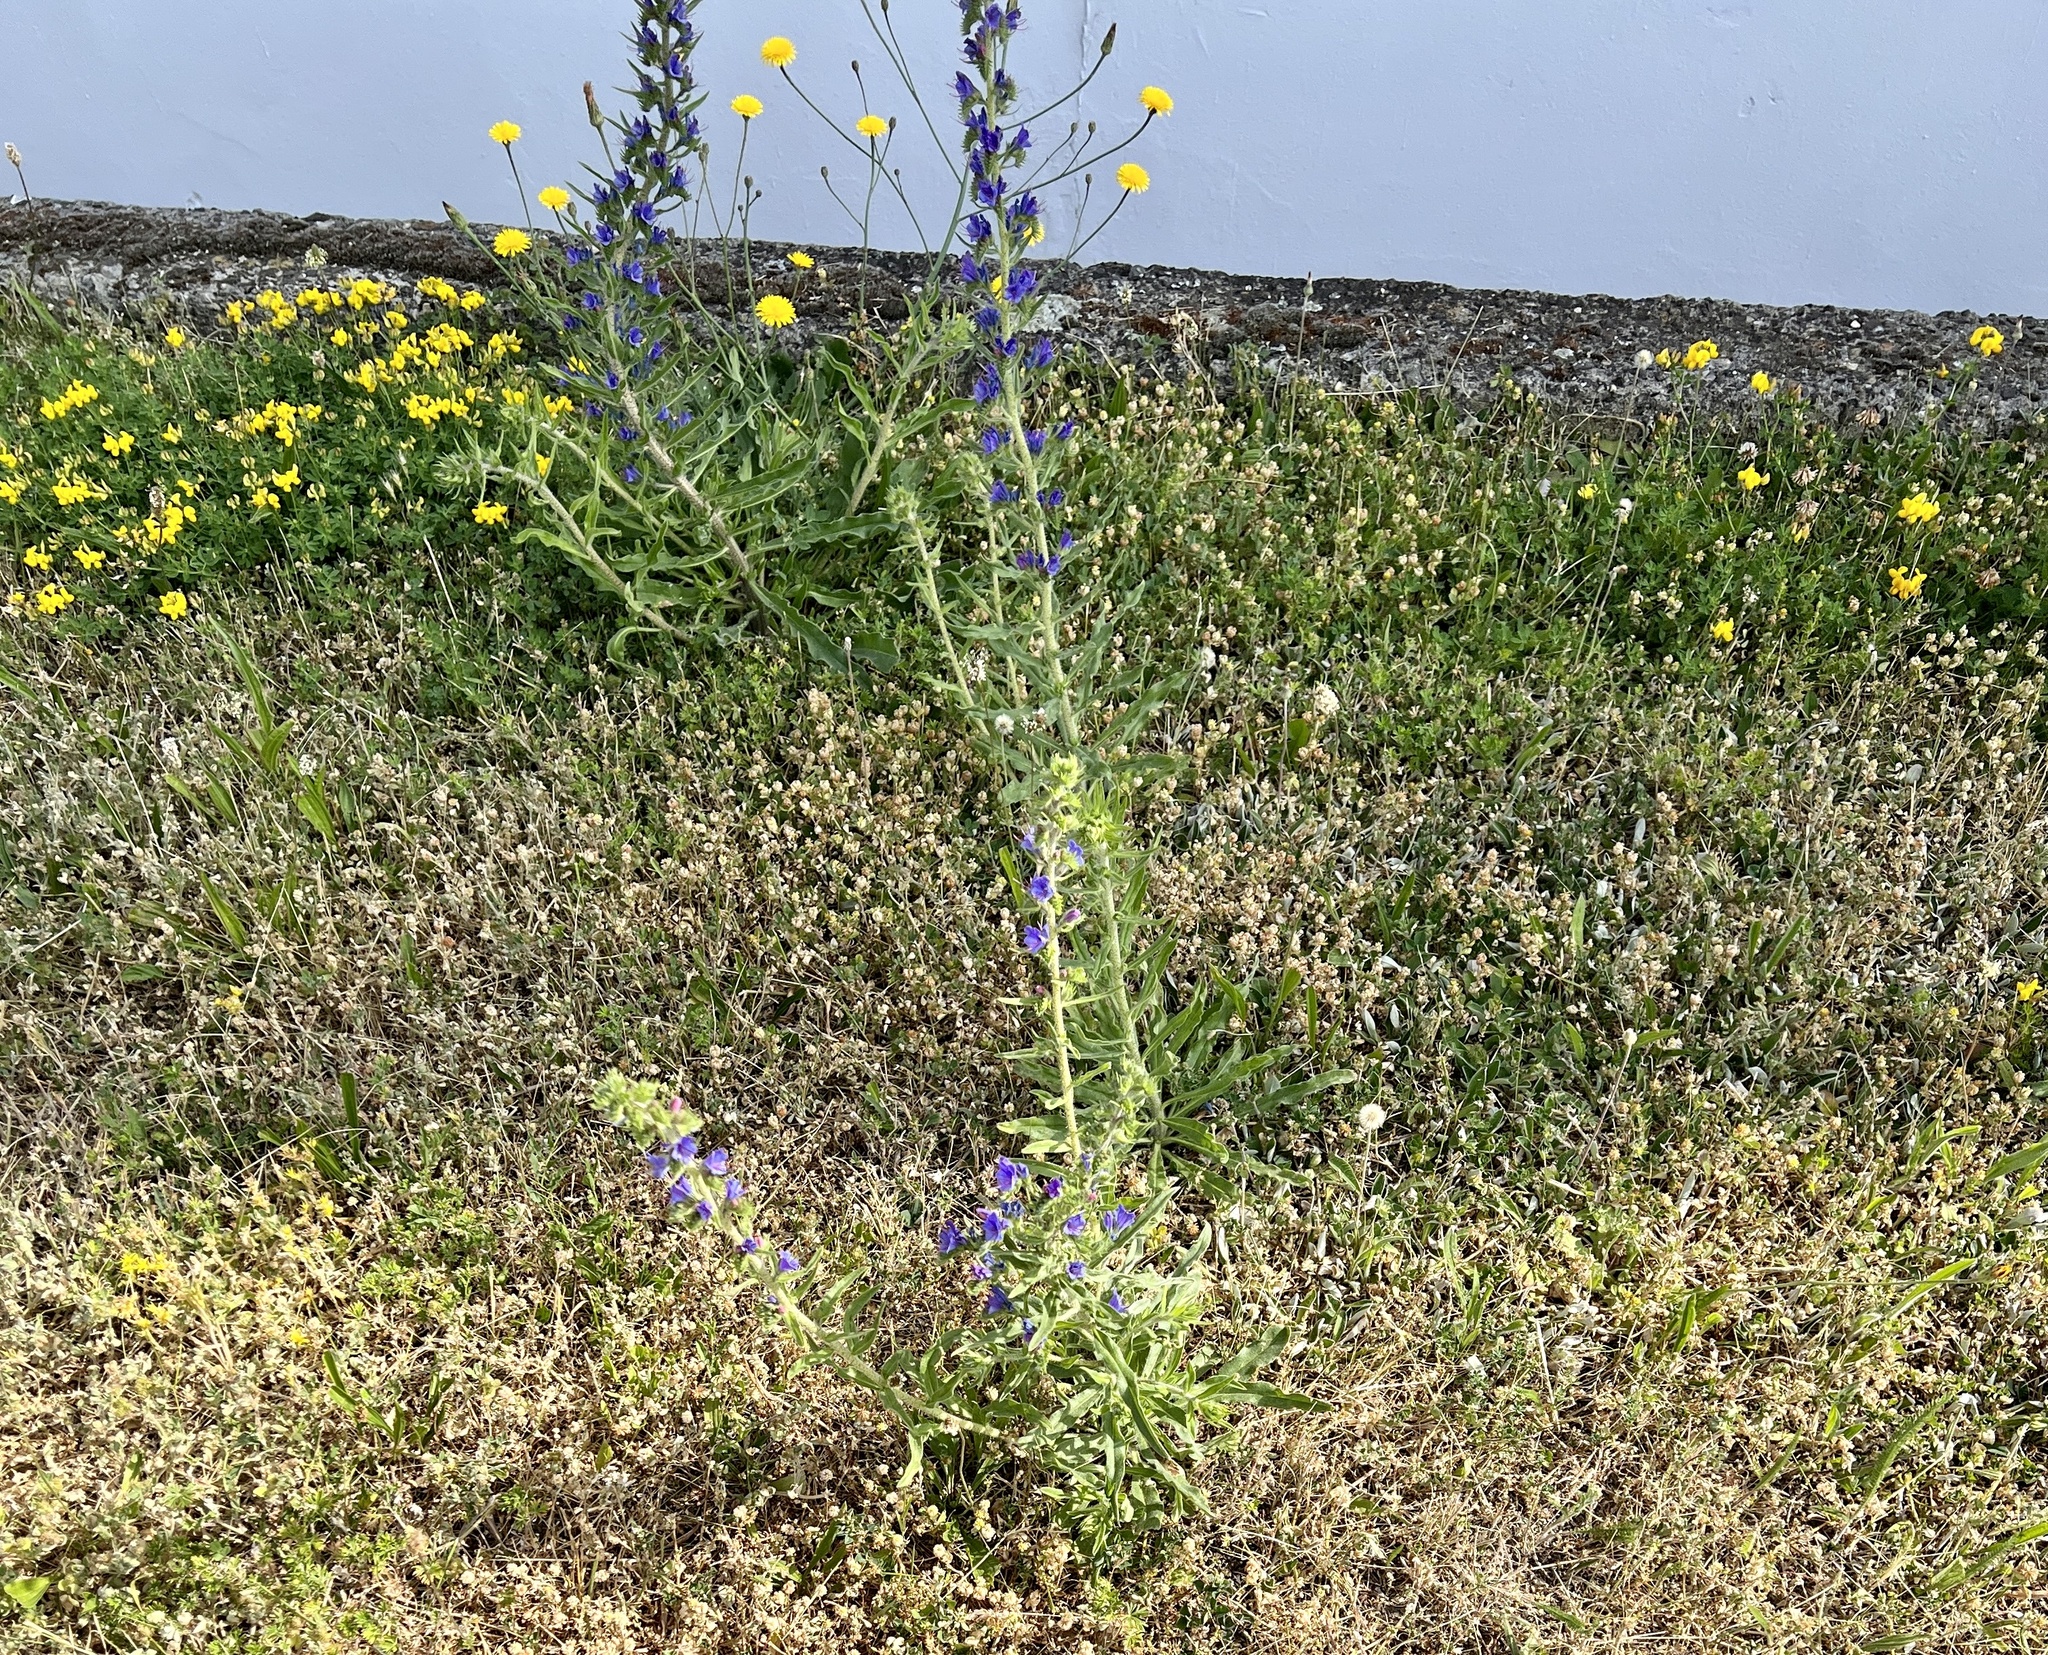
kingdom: Plantae
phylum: Tracheophyta
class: Magnoliopsida
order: Boraginales
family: Boraginaceae
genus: Echium
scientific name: Echium vulgare
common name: Common viper's bugloss
